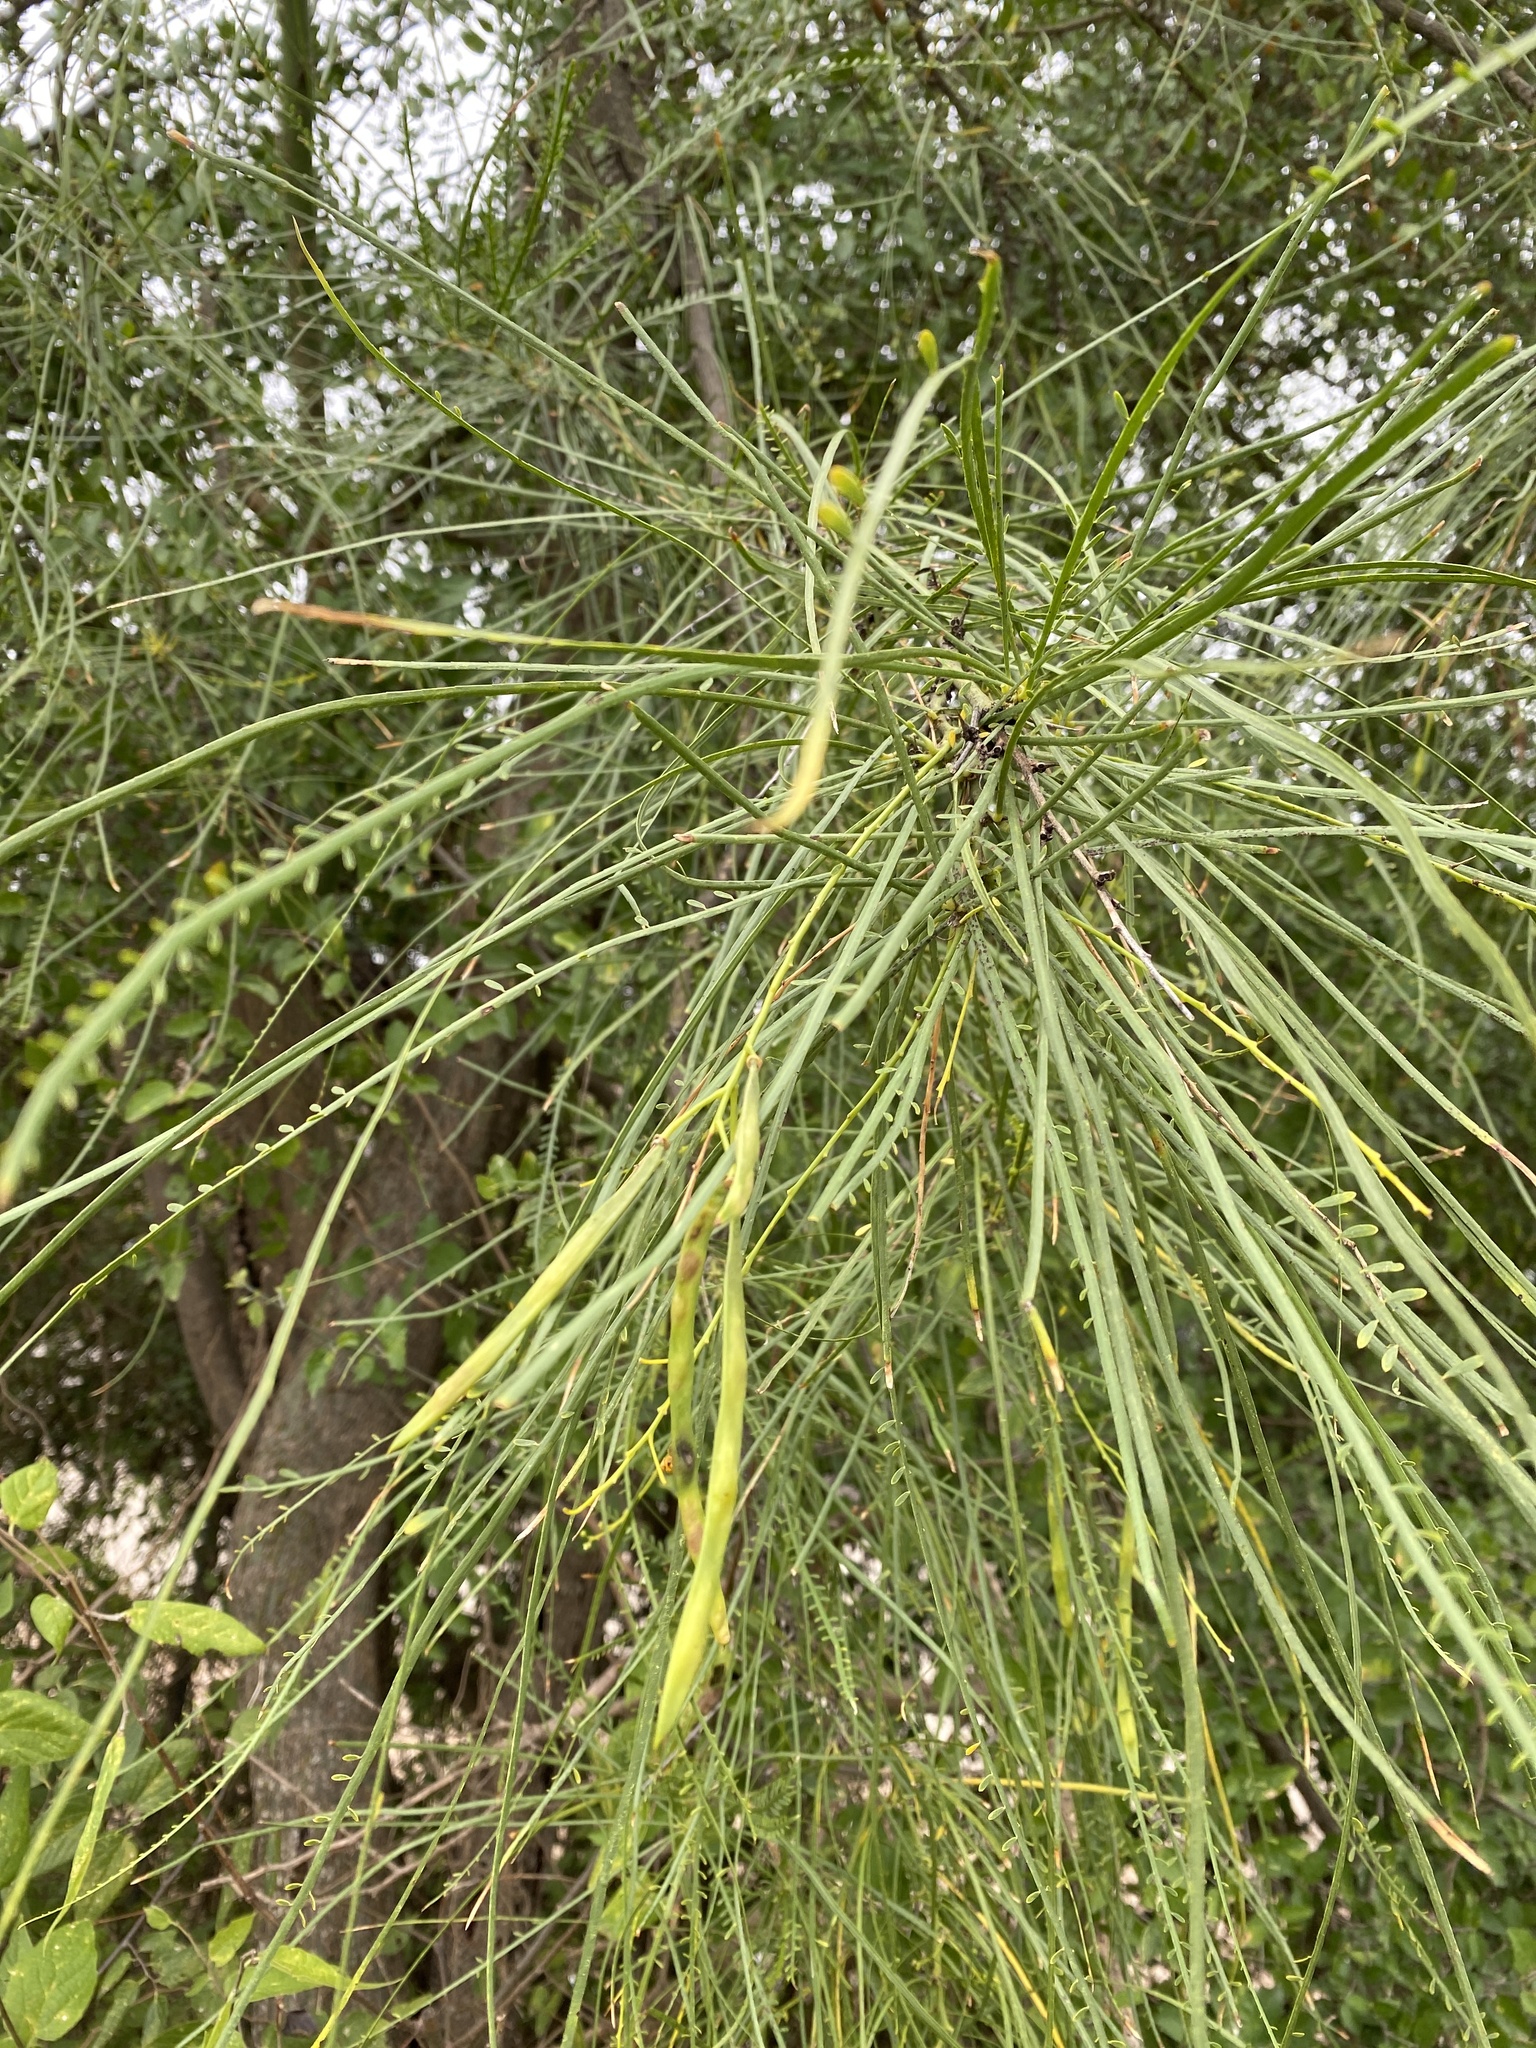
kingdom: Plantae
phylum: Tracheophyta
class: Magnoliopsida
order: Fabales
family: Fabaceae
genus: Parkinsonia
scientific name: Parkinsonia aculeata
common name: Jerusalem thorn
